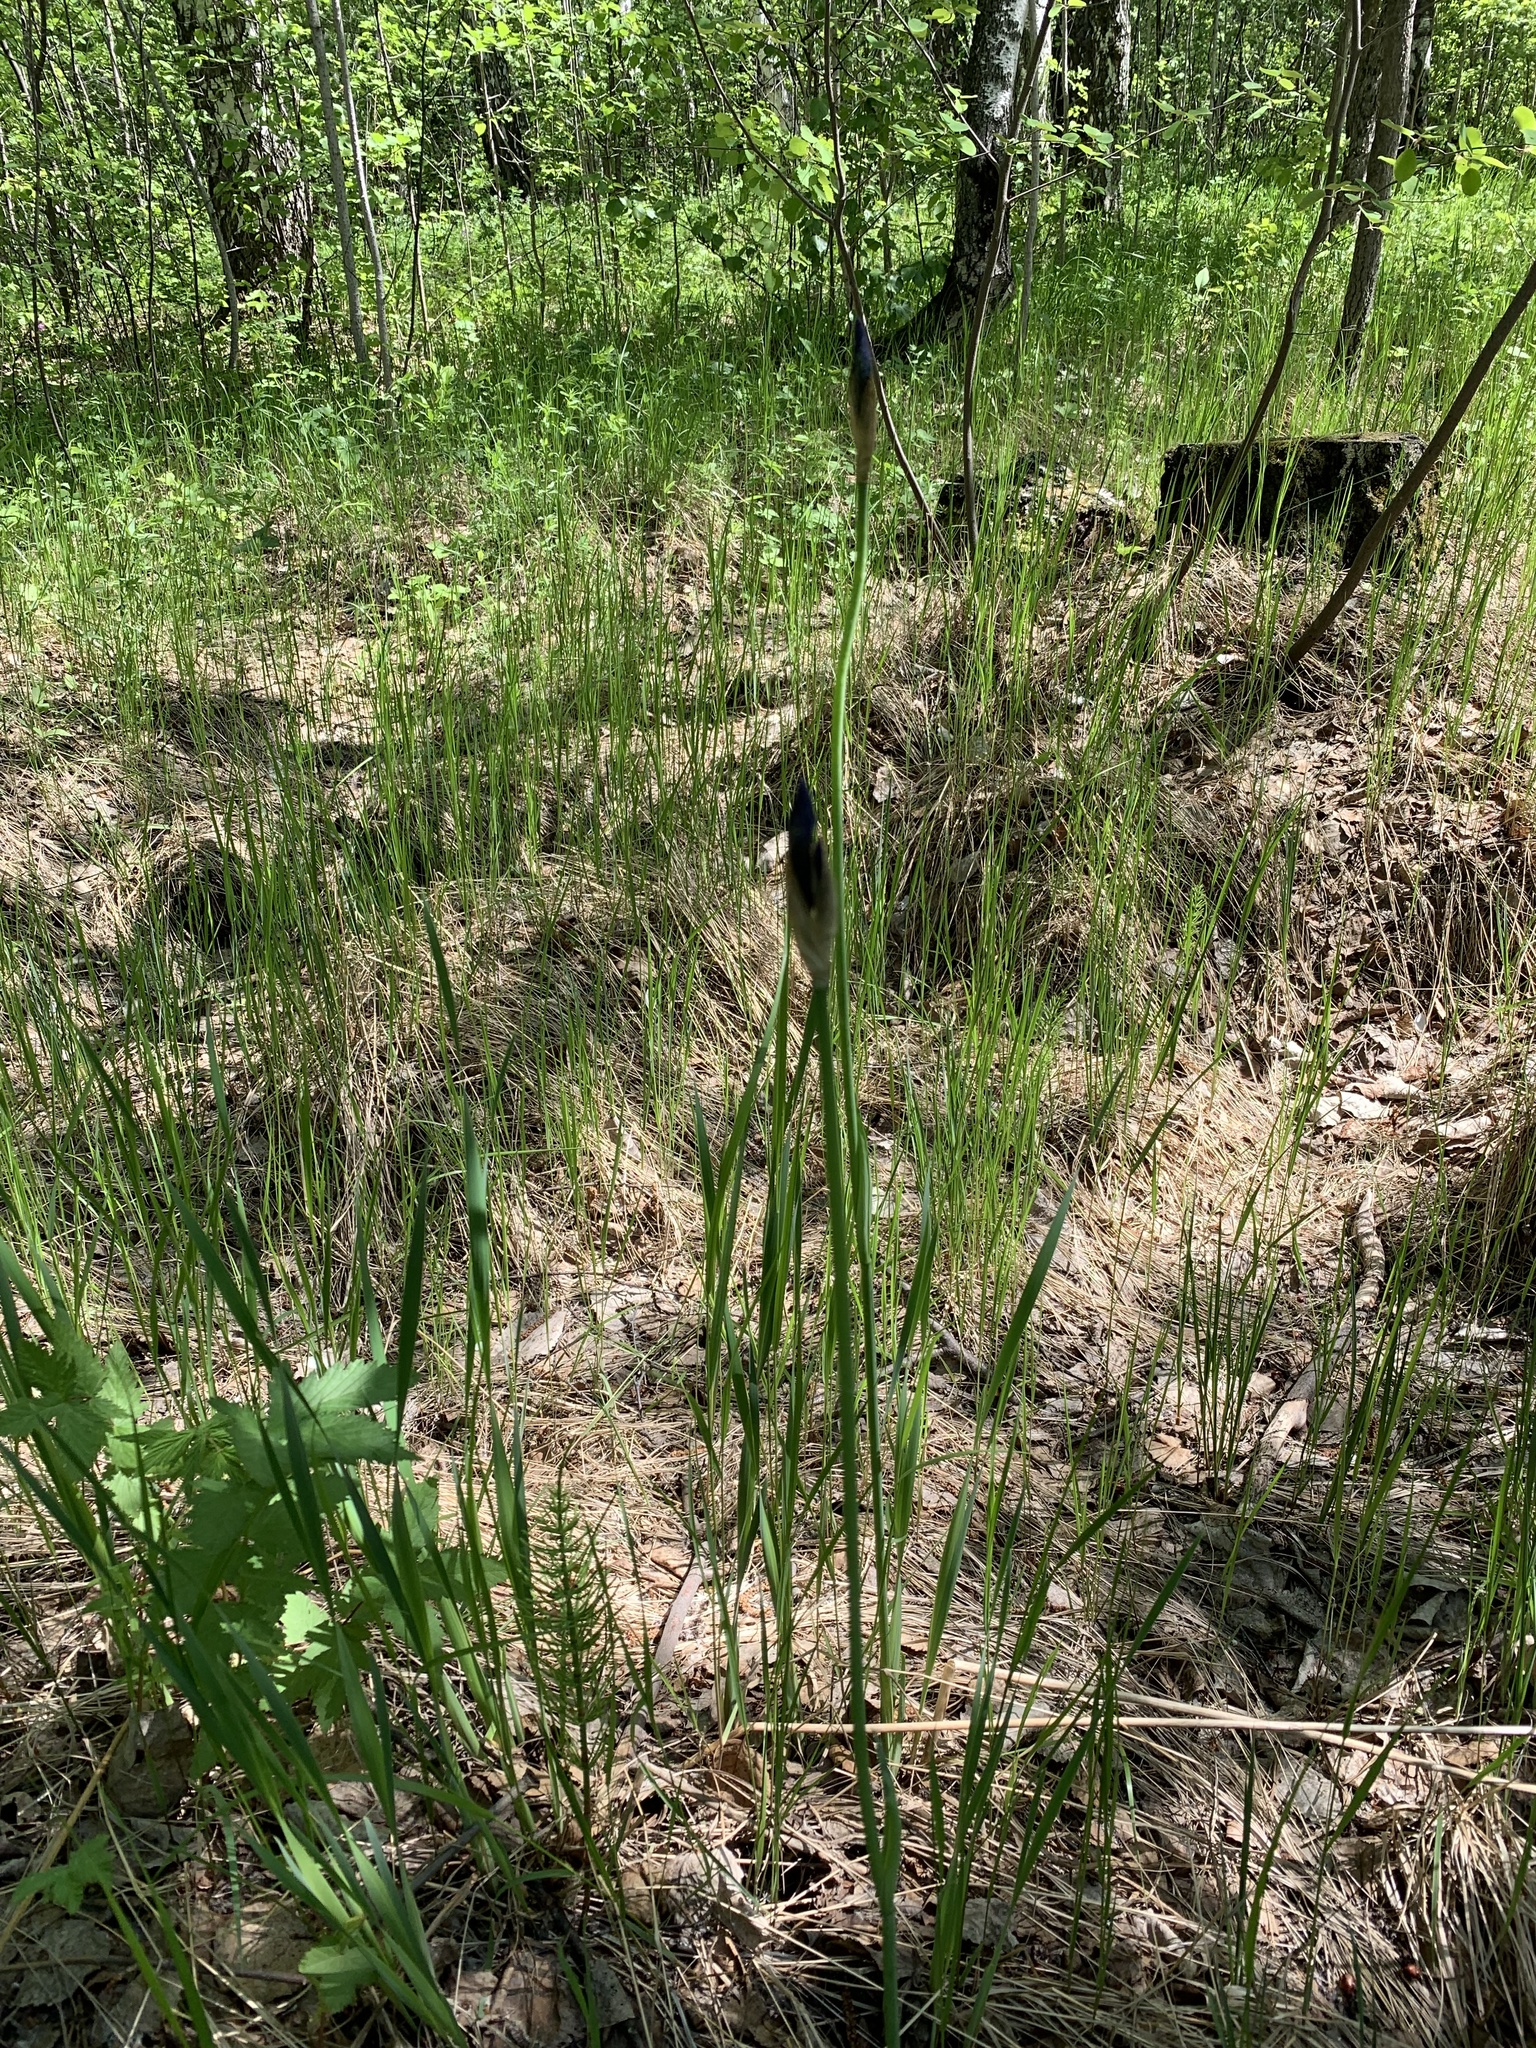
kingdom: Plantae
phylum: Tracheophyta
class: Liliopsida
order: Asparagales
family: Iridaceae
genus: Iris
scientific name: Iris sibirica
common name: Siberian iris
